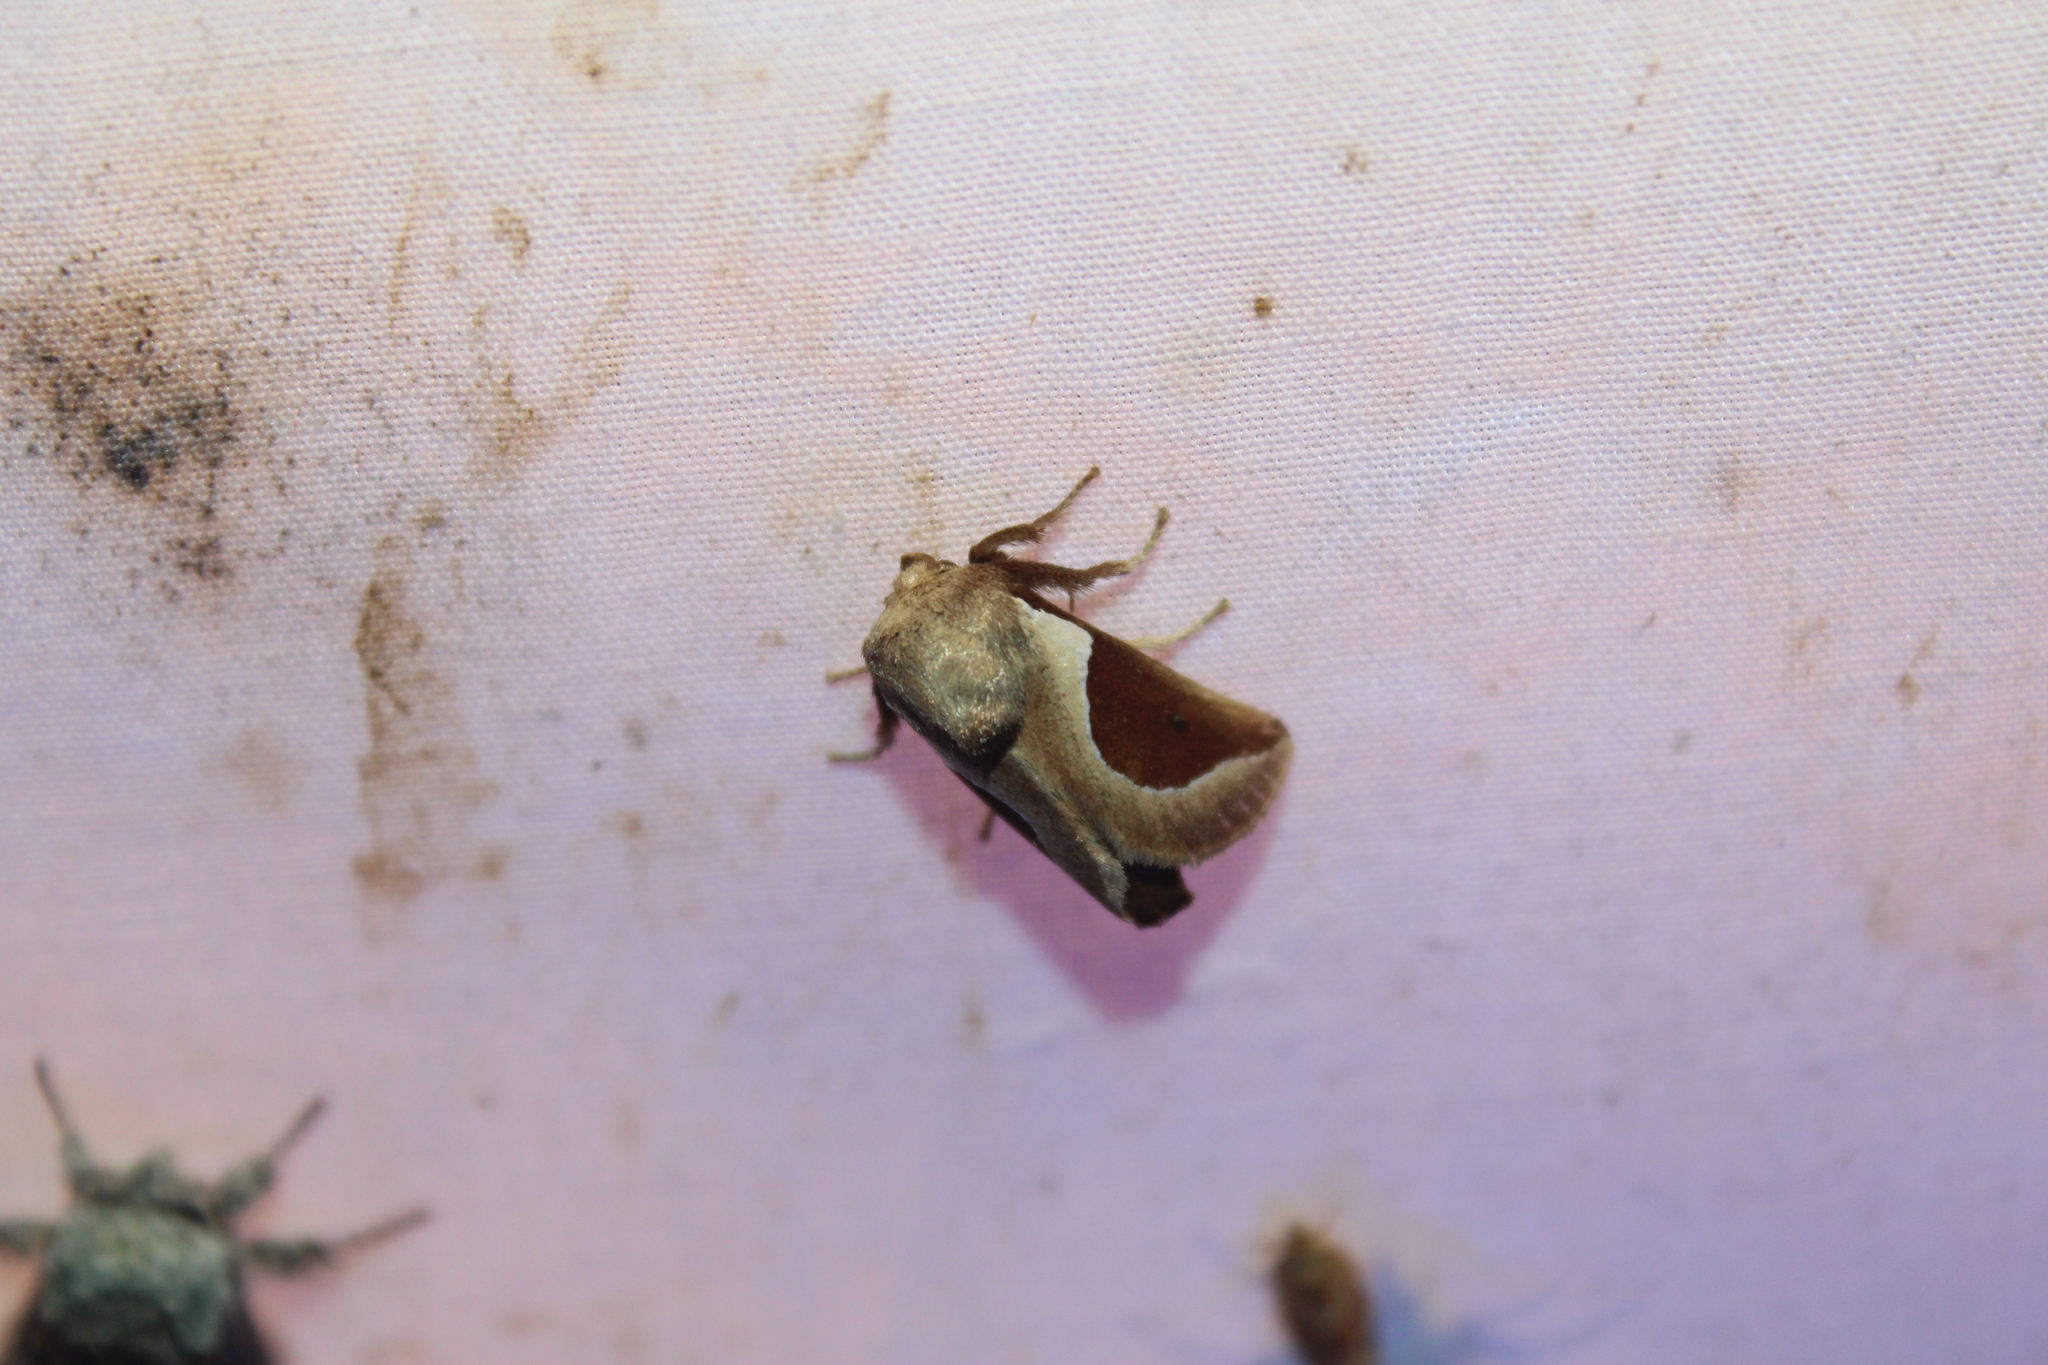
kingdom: Animalia
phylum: Arthropoda
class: Insecta
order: Lepidoptera
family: Limacodidae
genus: Prolimacodes
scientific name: Prolimacodes badia
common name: Skiff moth
